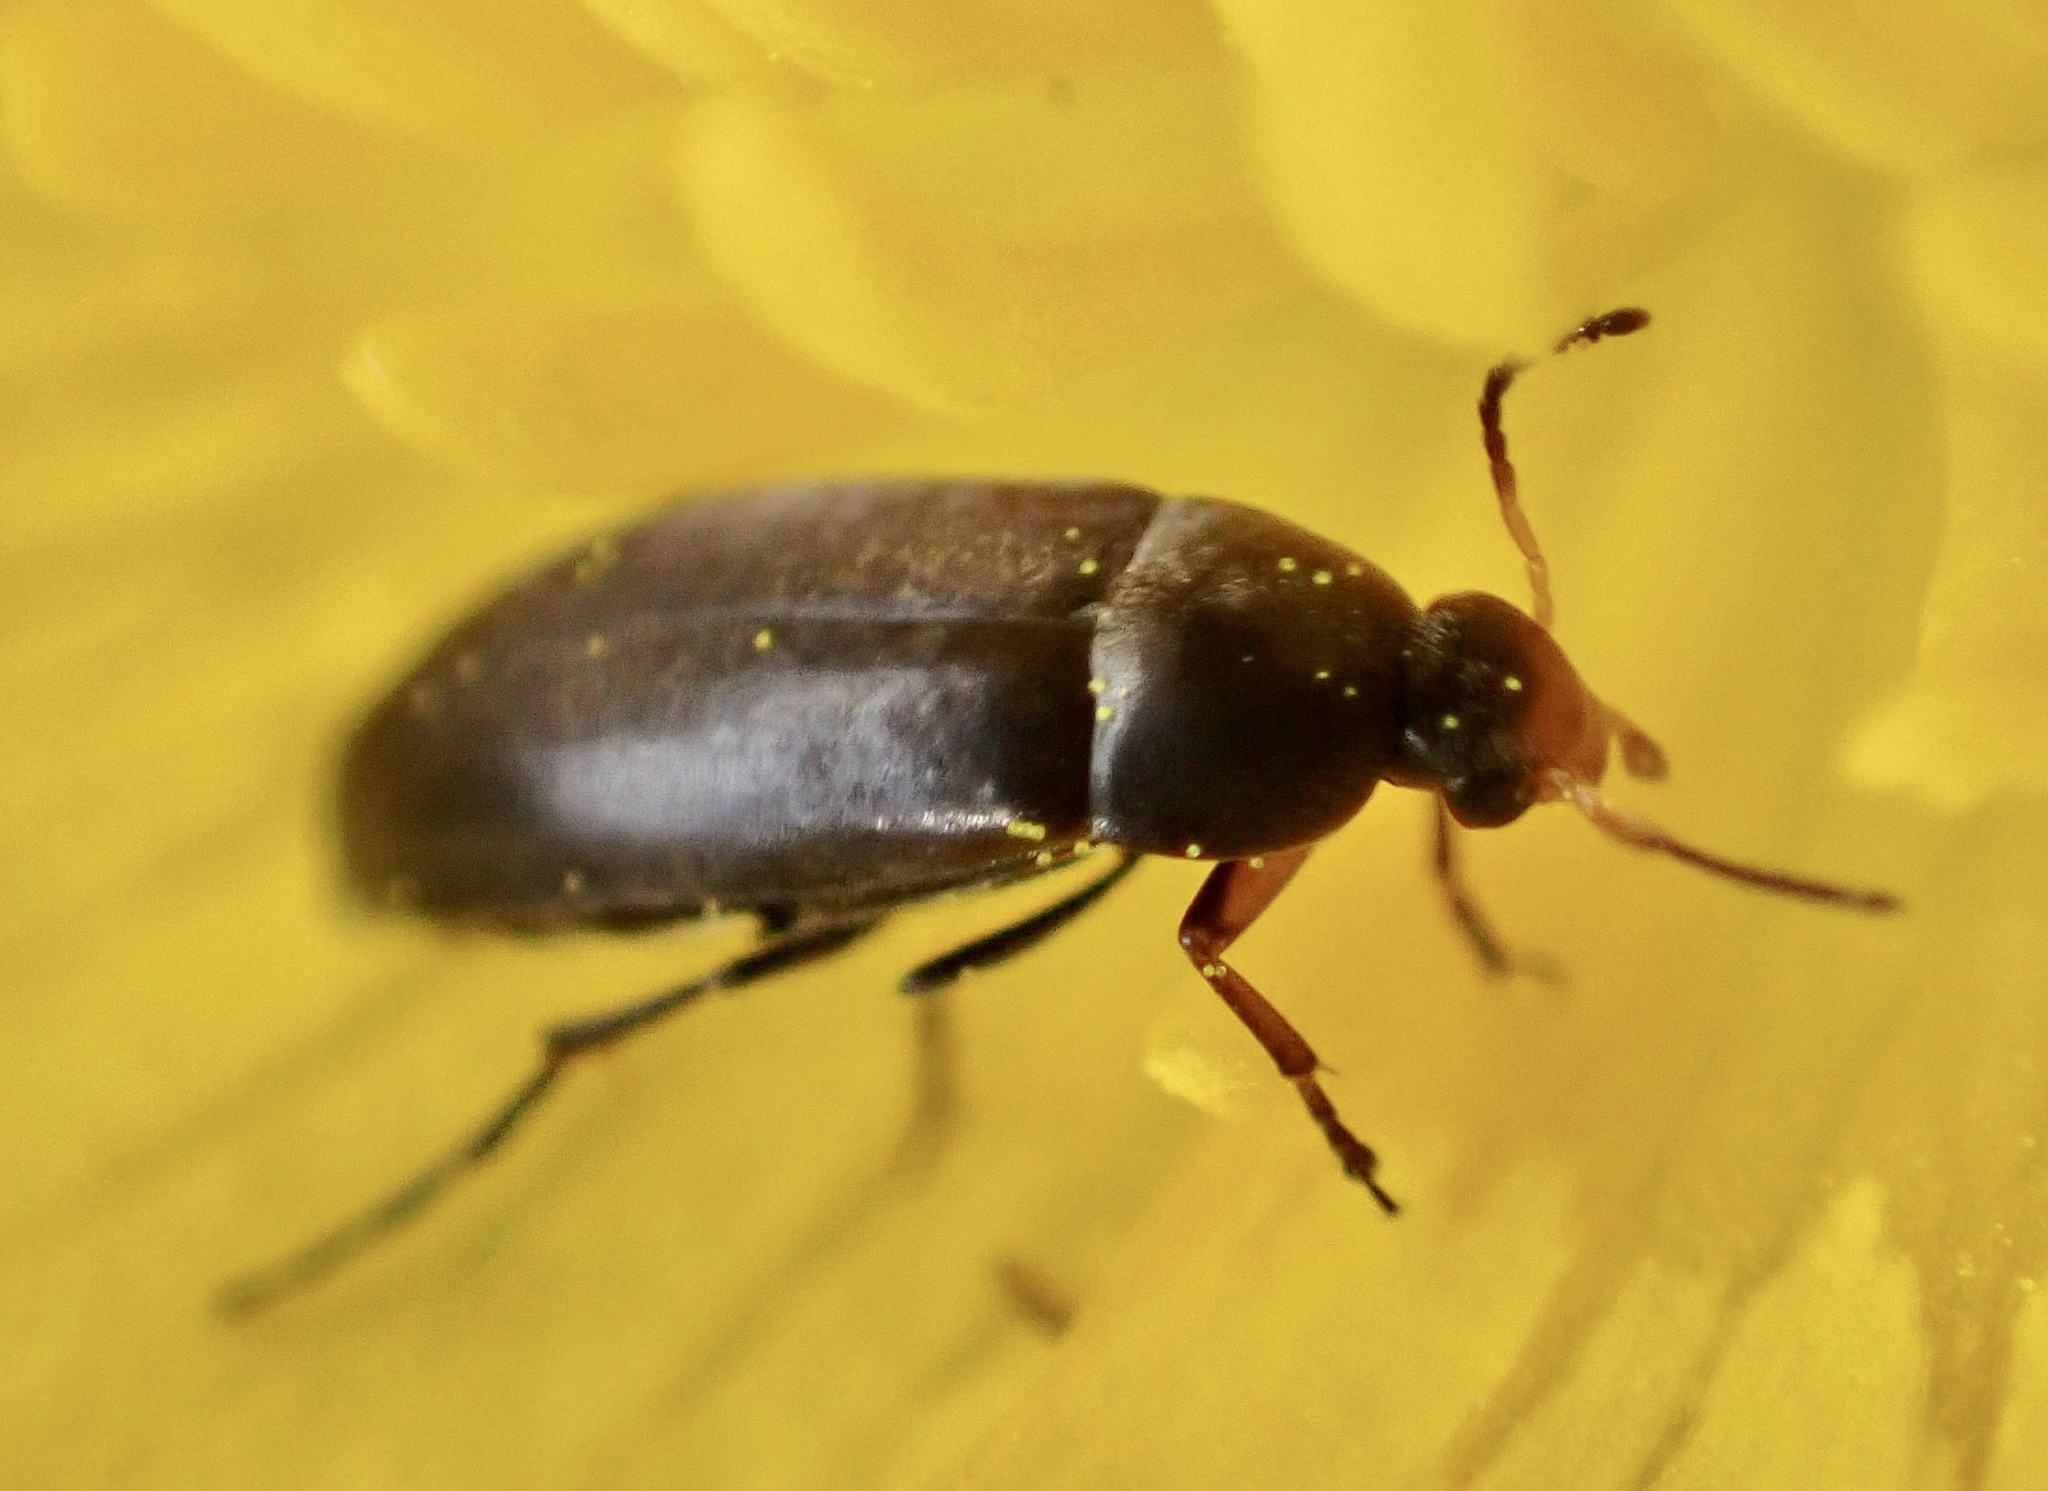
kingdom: Animalia
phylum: Arthropoda
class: Insecta
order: Coleoptera
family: Scraptiidae
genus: Anaspis
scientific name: Anaspis frontalis
